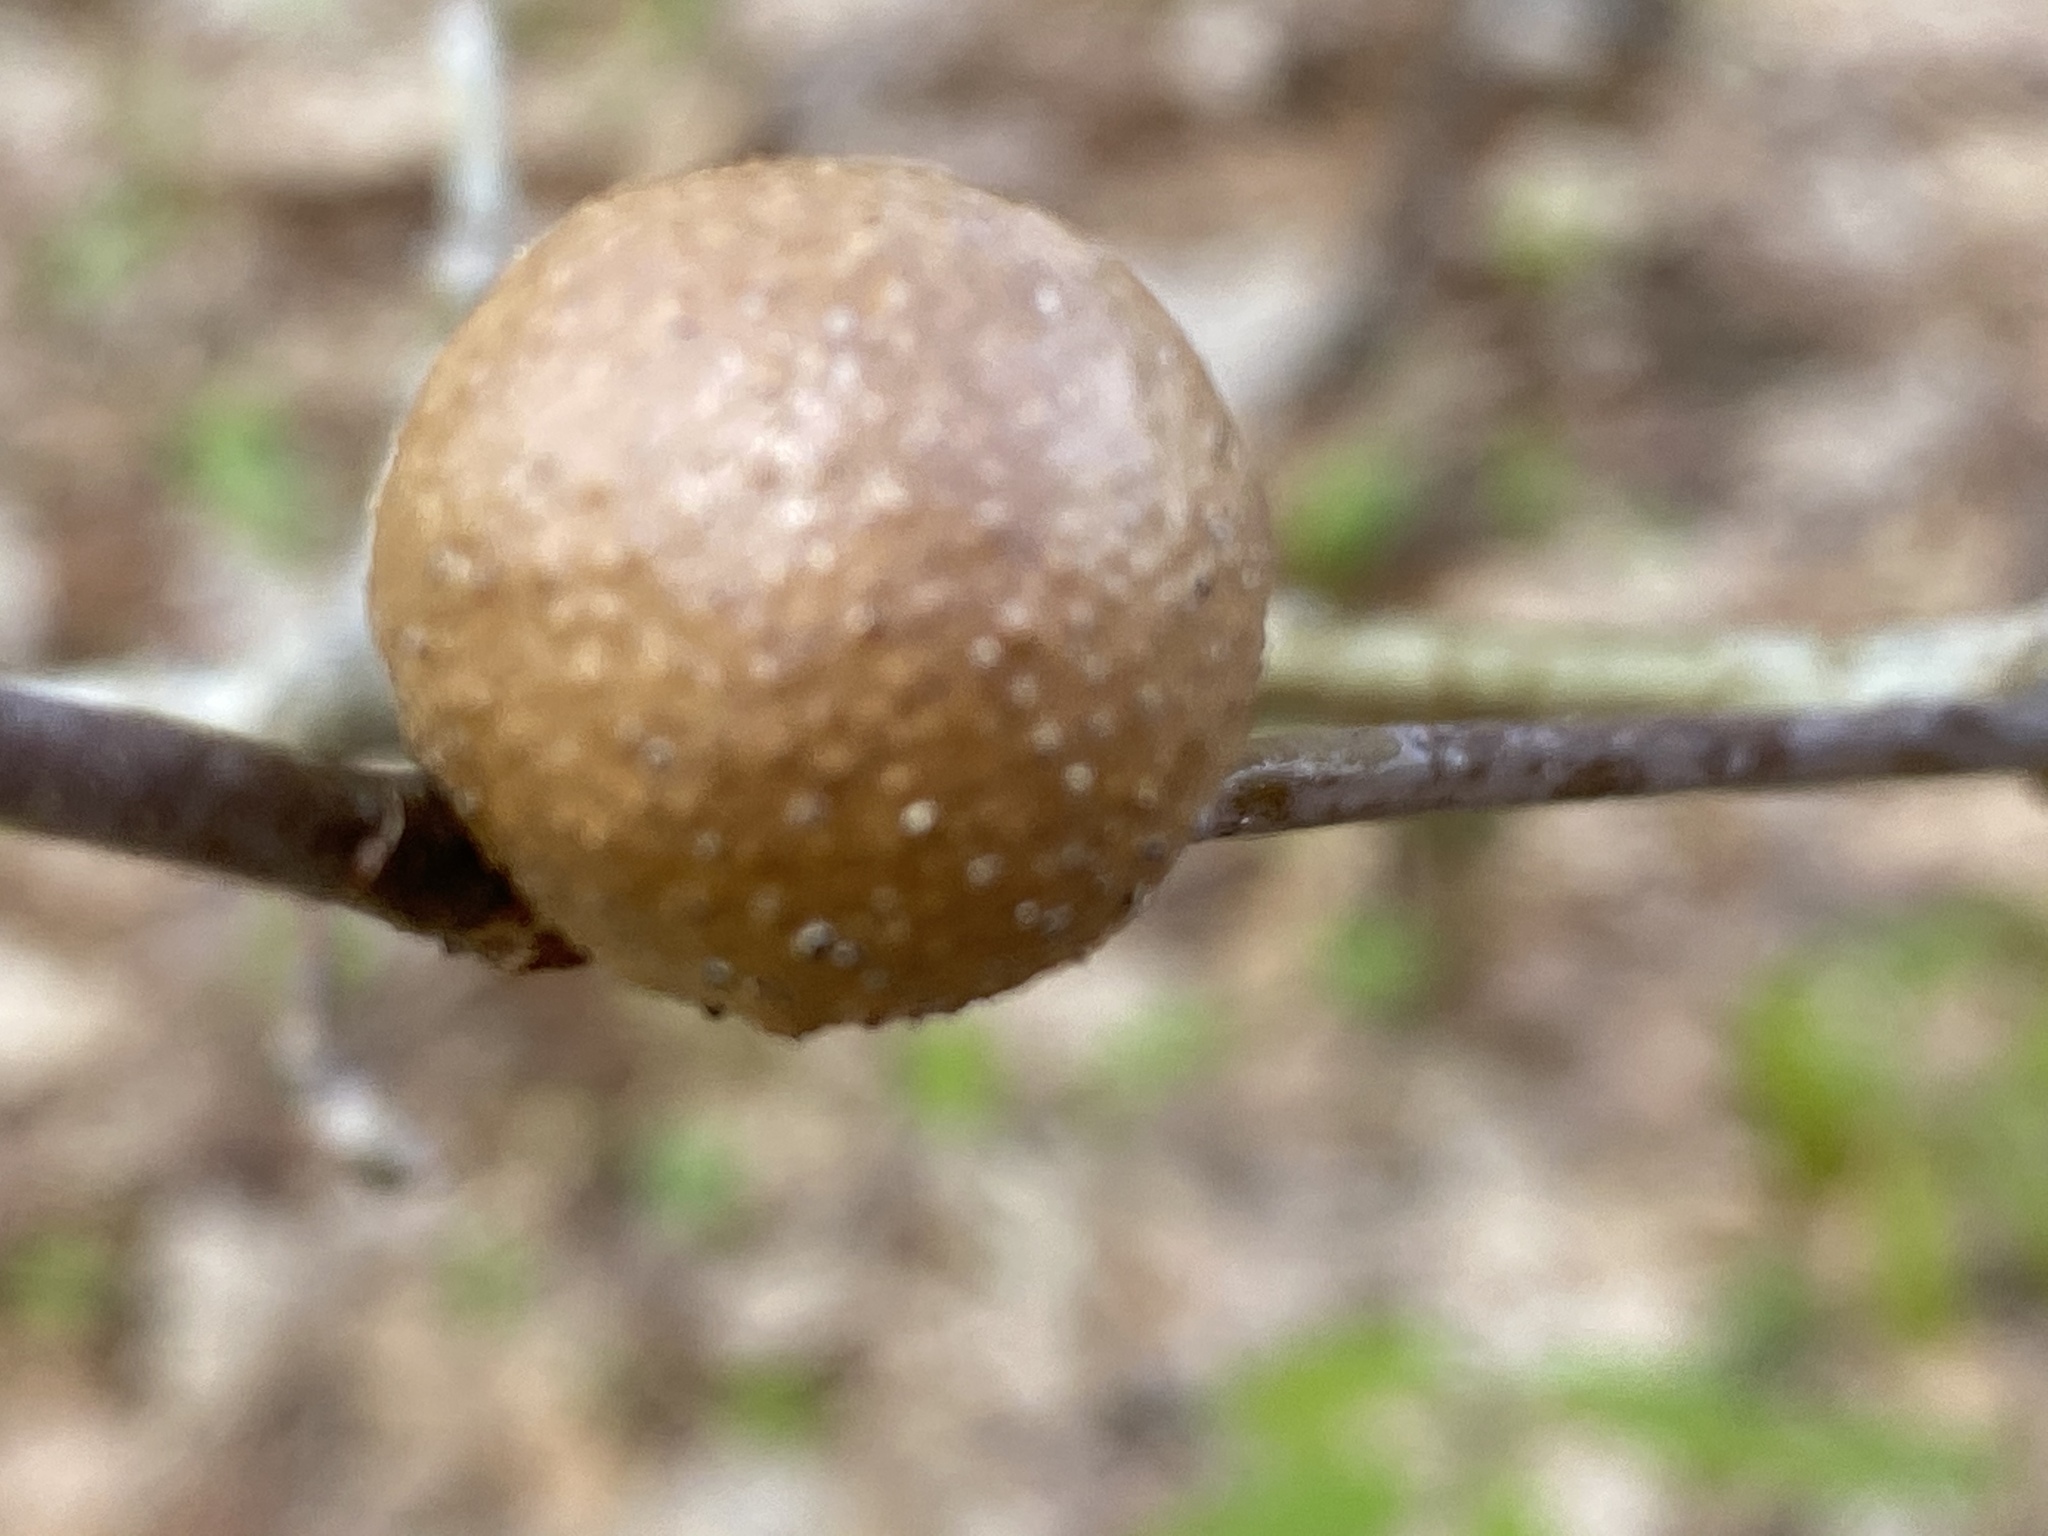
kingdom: Animalia
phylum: Arthropoda
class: Insecta
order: Hymenoptera
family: Cynipidae
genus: Disholcaspis
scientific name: Disholcaspis quercusglobulus
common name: Round bullet gall wasp
